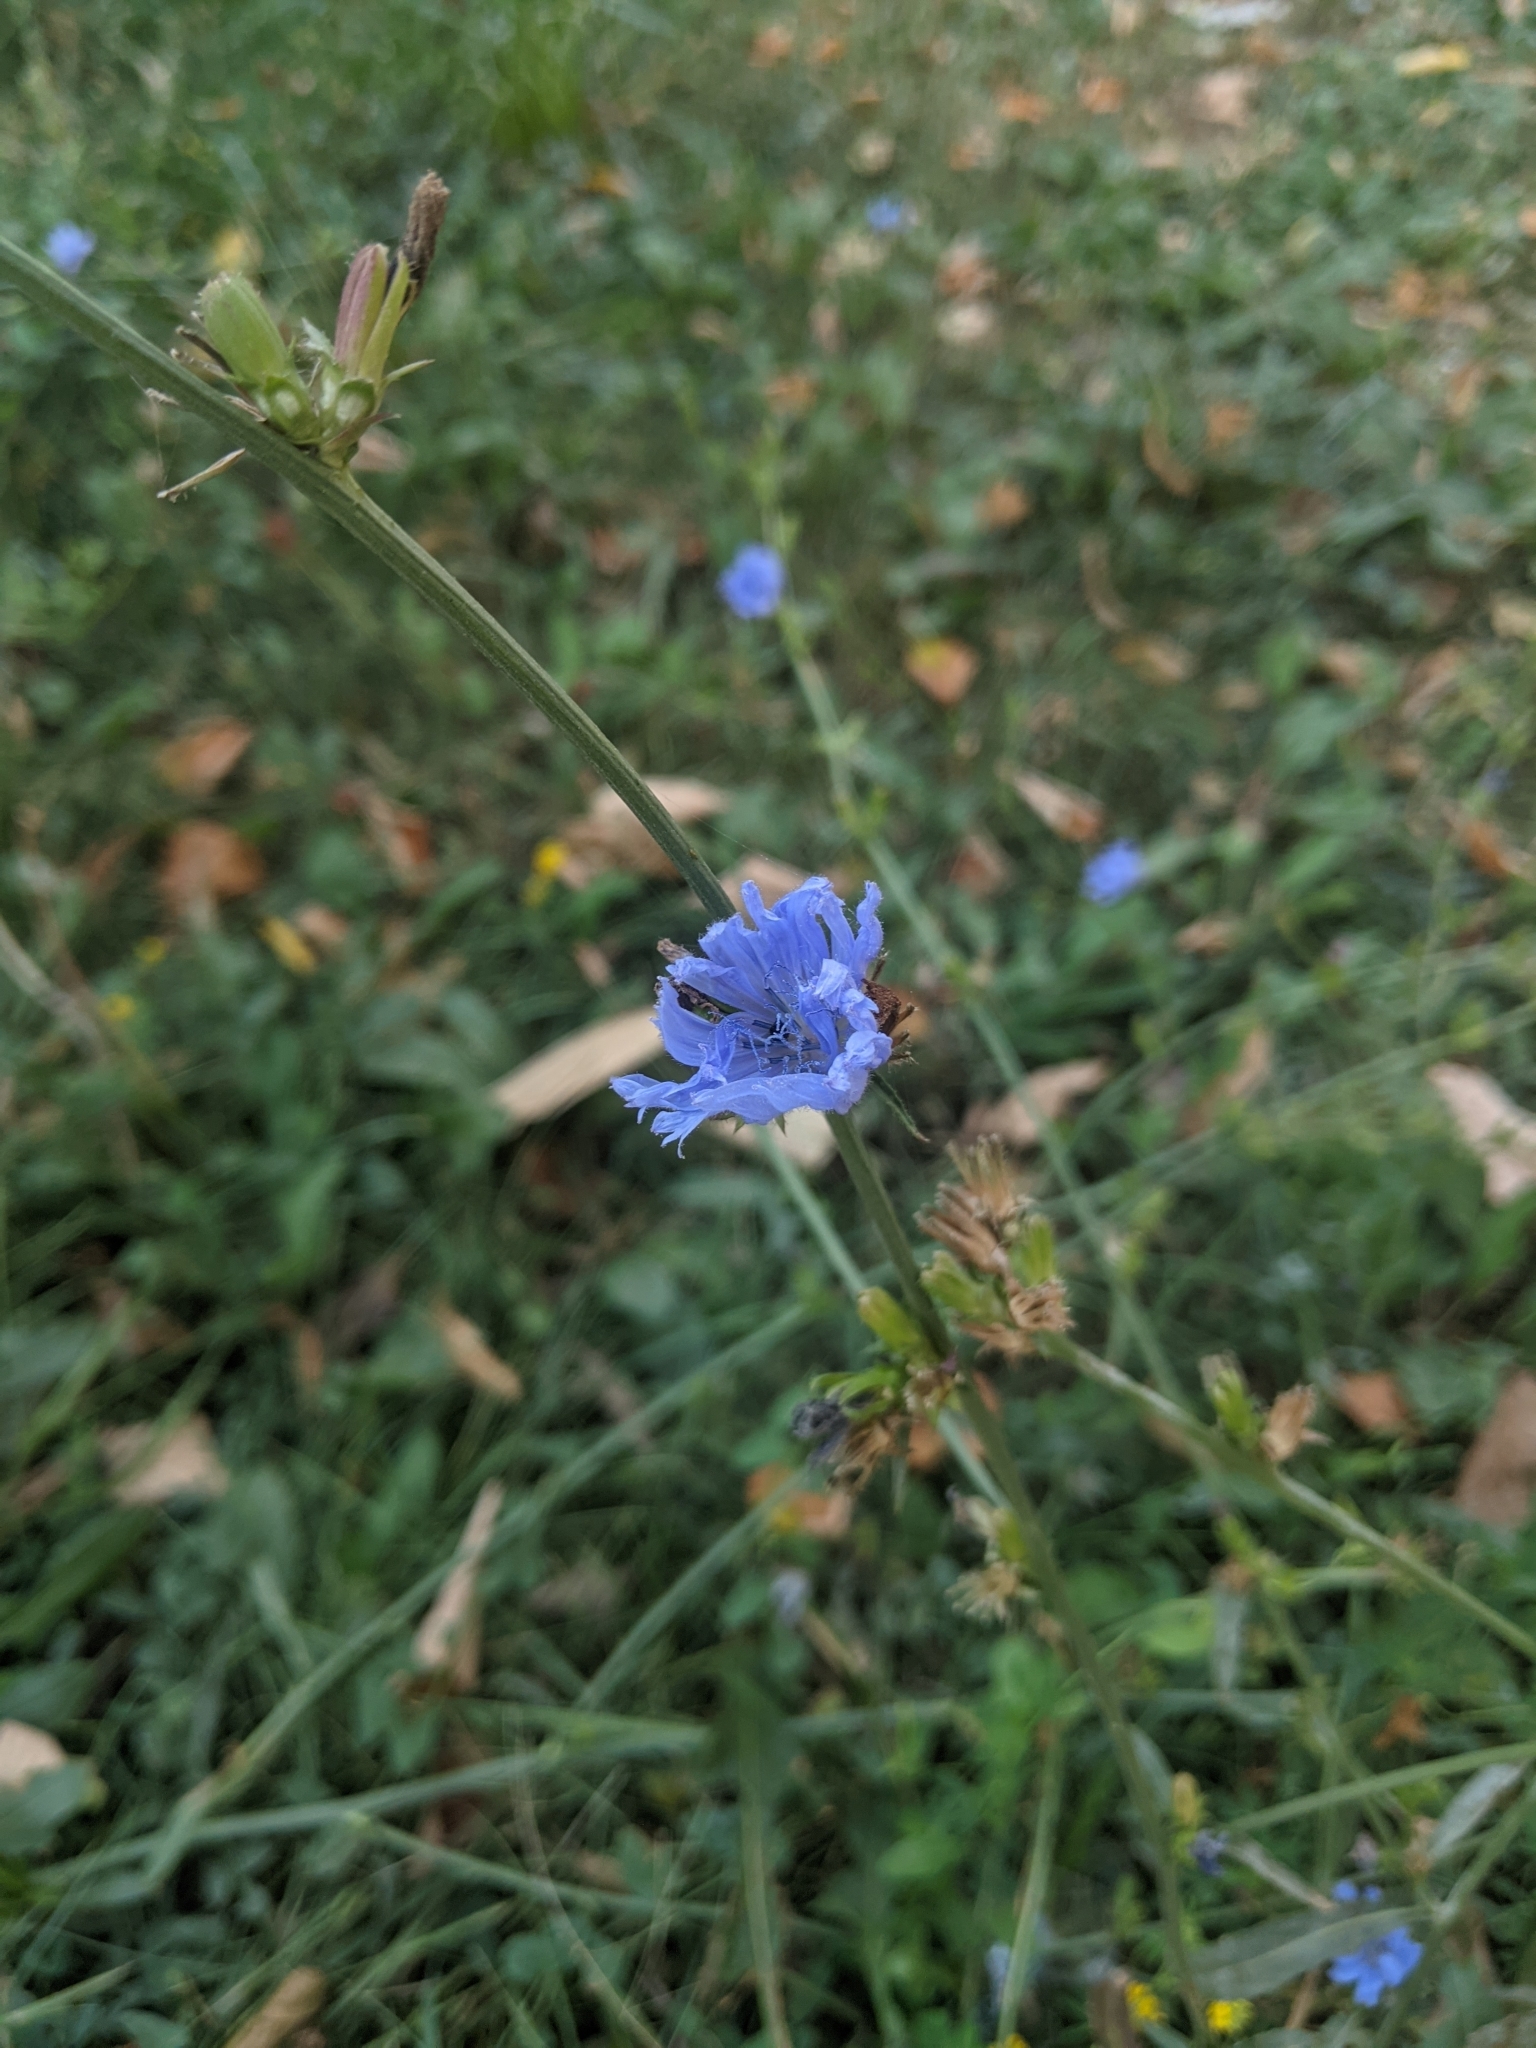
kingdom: Plantae
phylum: Tracheophyta
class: Magnoliopsida
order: Asterales
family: Asteraceae
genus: Cichorium
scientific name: Cichorium intybus
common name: Chicory
